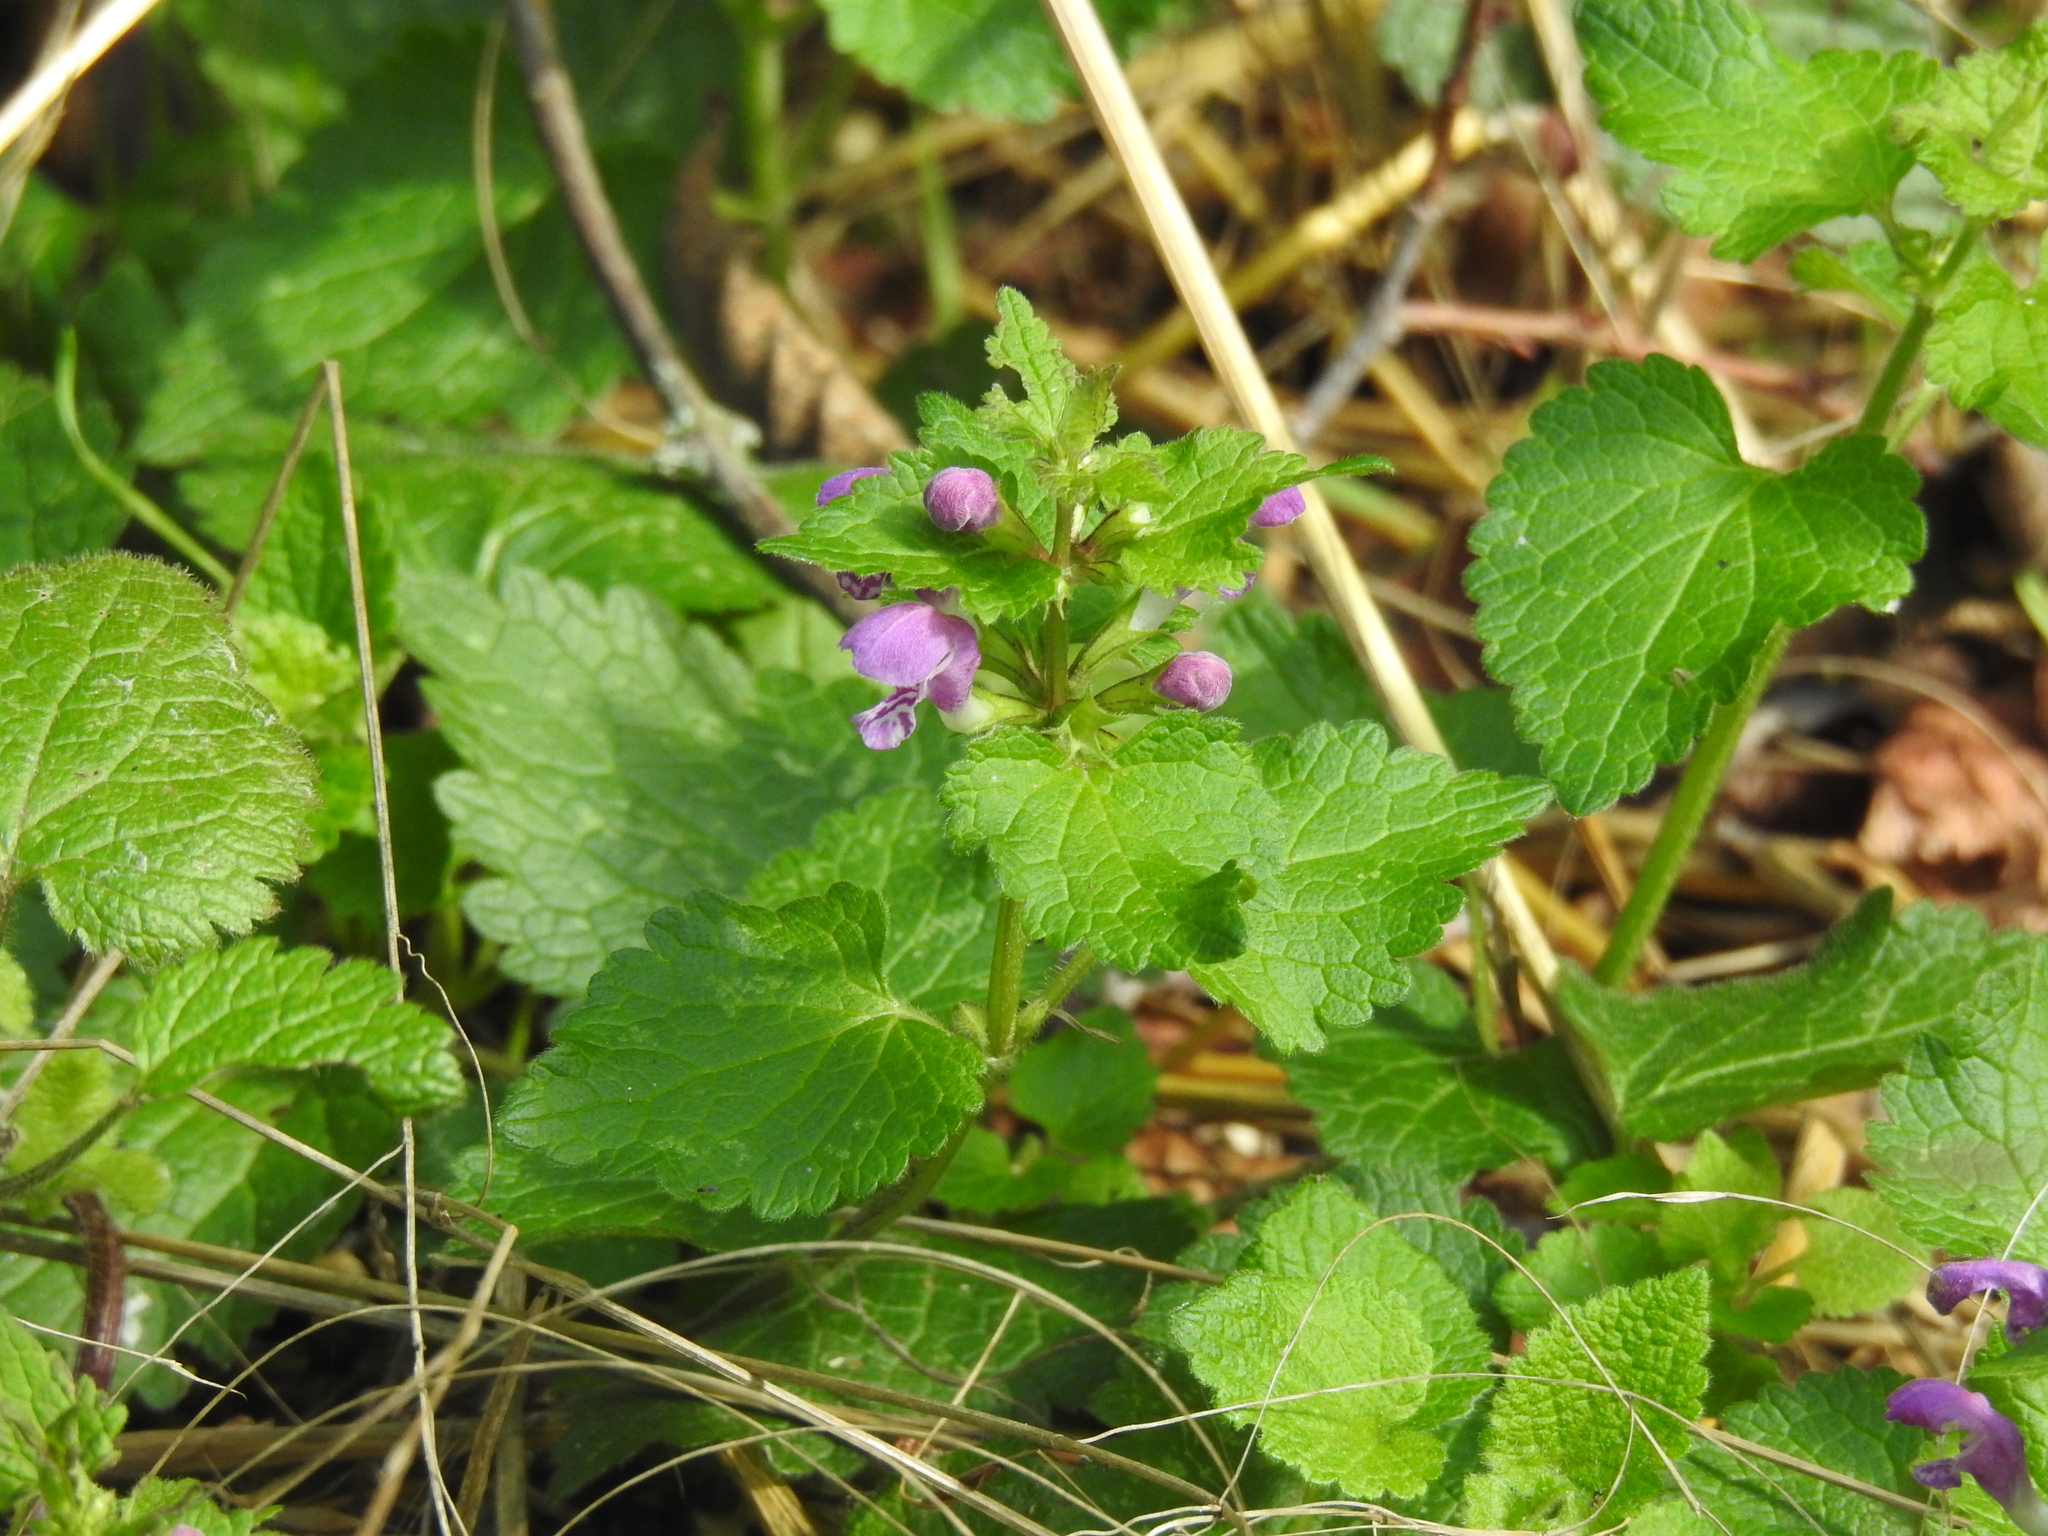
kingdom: Plantae
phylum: Tracheophyta
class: Magnoliopsida
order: Lamiales
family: Lamiaceae
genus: Lamium
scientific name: Lamium maculatum
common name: Spotted dead-nettle
